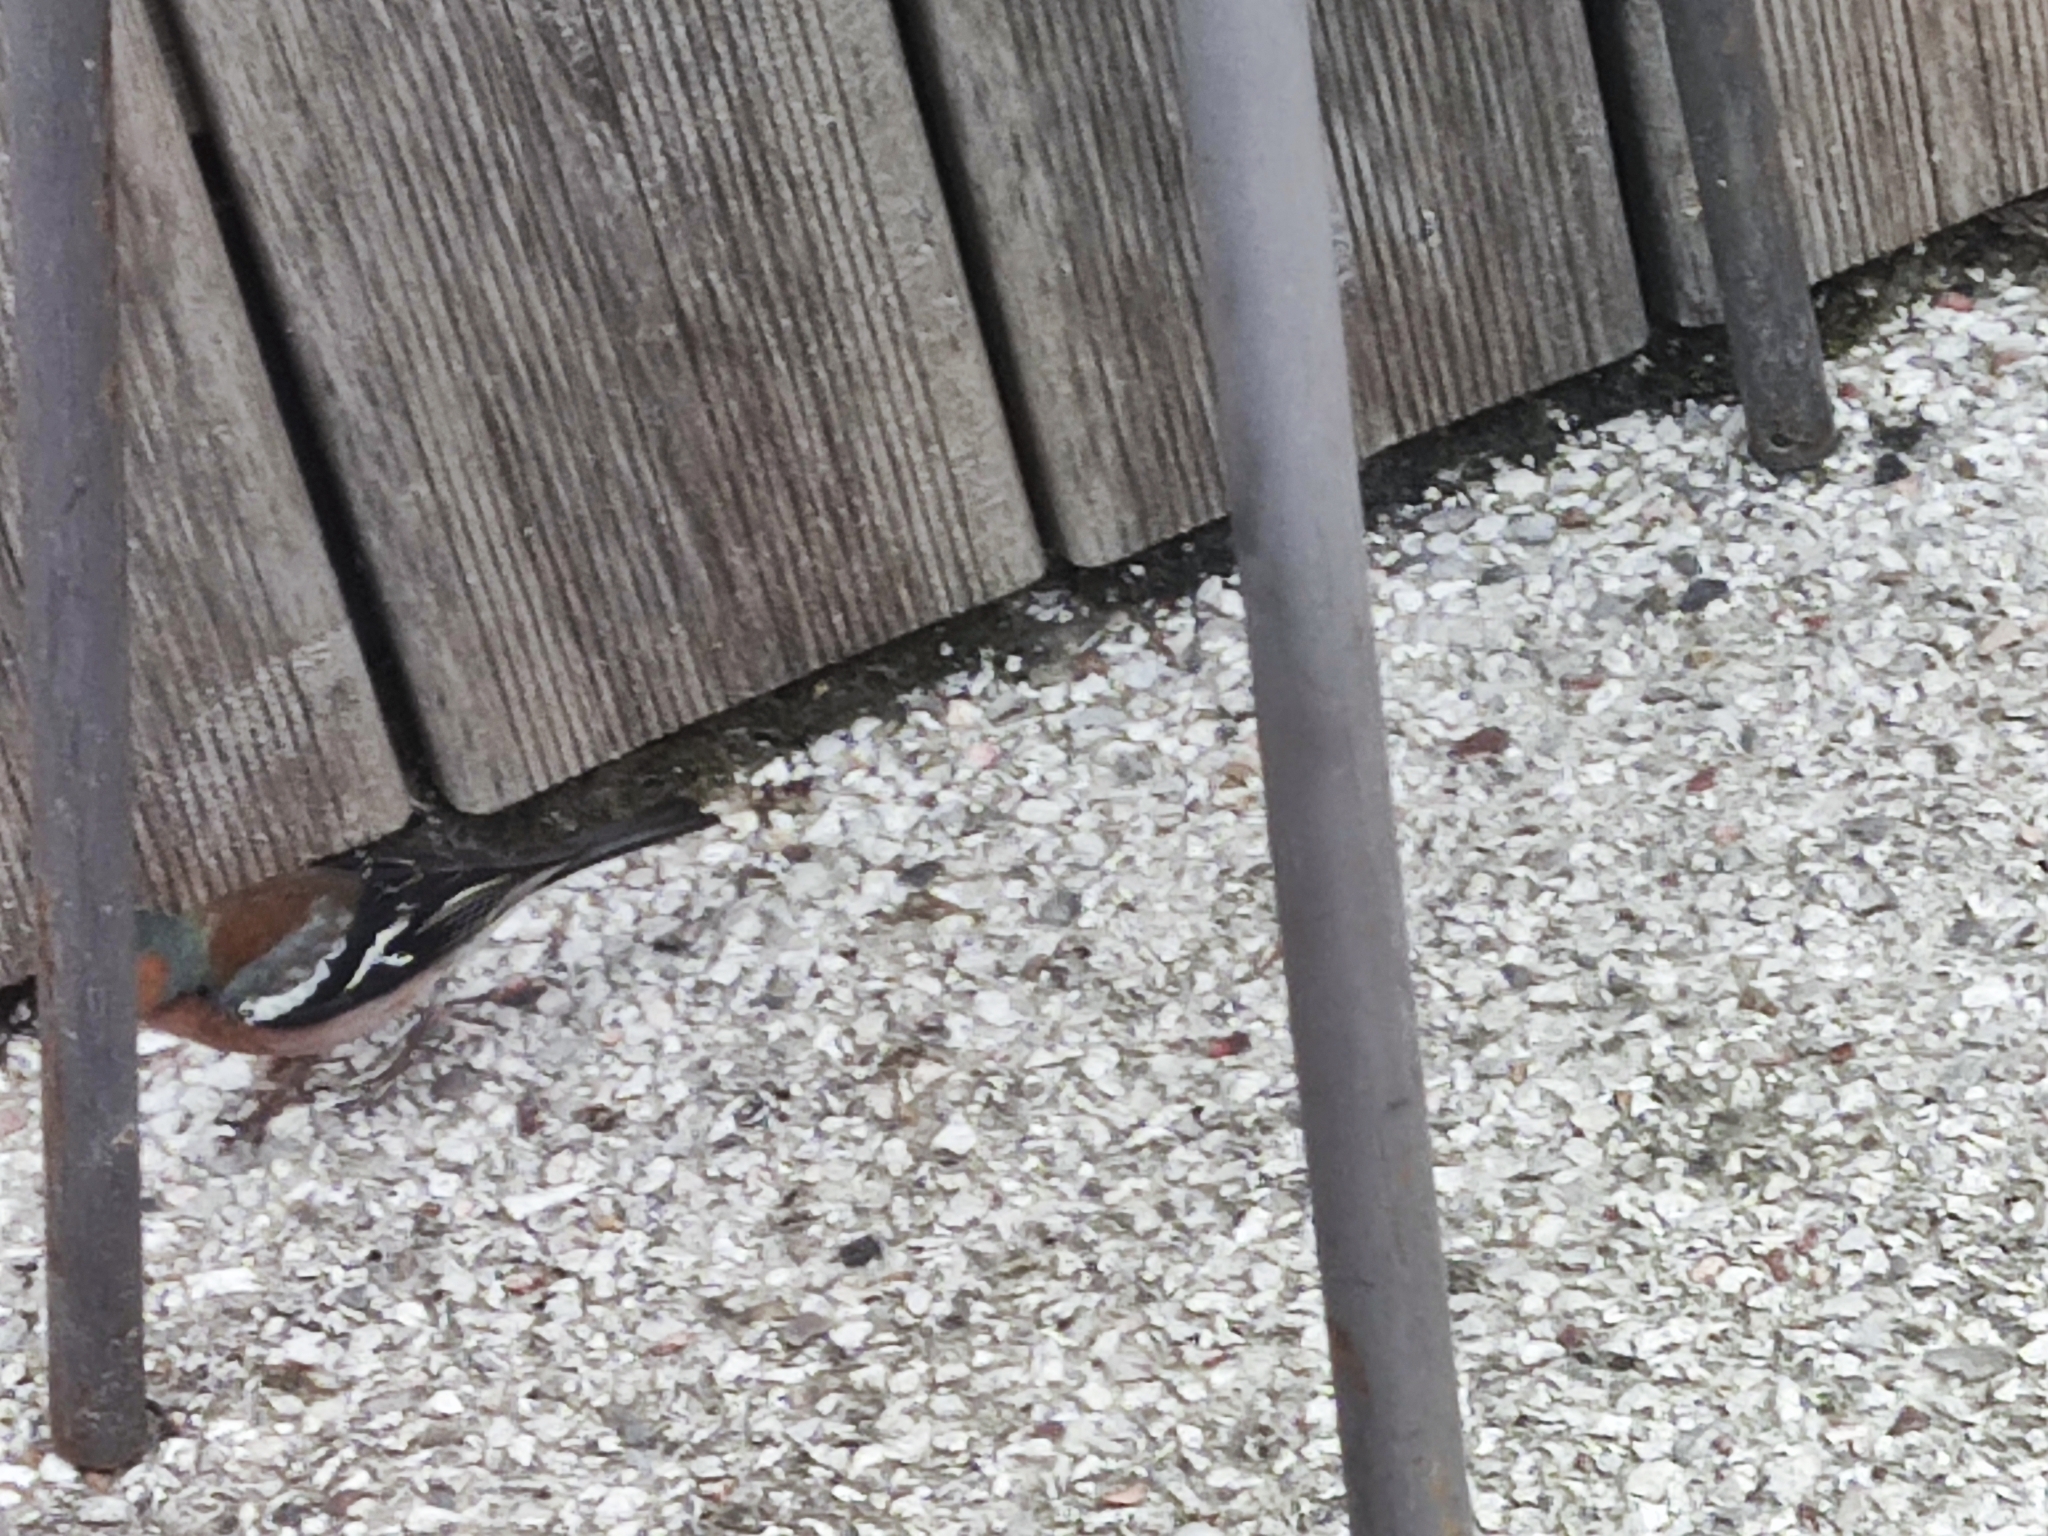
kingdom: Animalia
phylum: Chordata
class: Aves
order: Passeriformes
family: Fringillidae
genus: Fringilla
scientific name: Fringilla coelebs
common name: Common chaffinch
